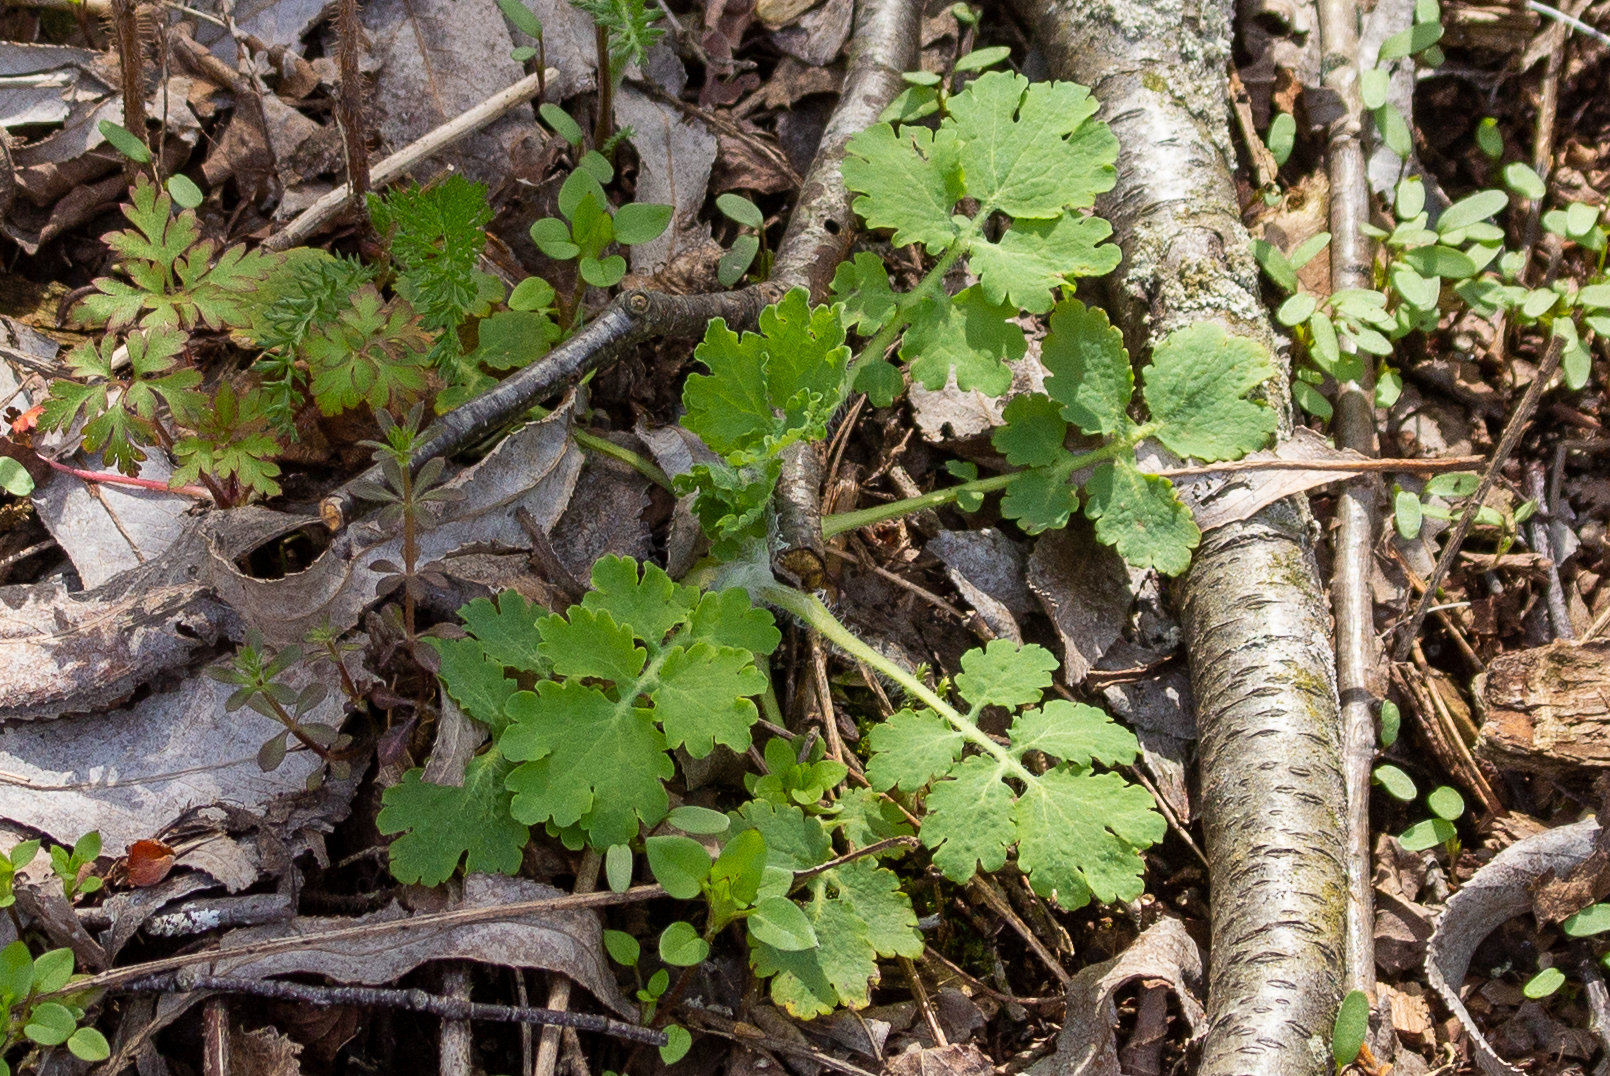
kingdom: Plantae
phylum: Tracheophyta
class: Magnoliopsida
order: Ranunculales
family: Papaveraceae
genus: Chelidonium
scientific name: Chelidonium majus
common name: Greater celandine
